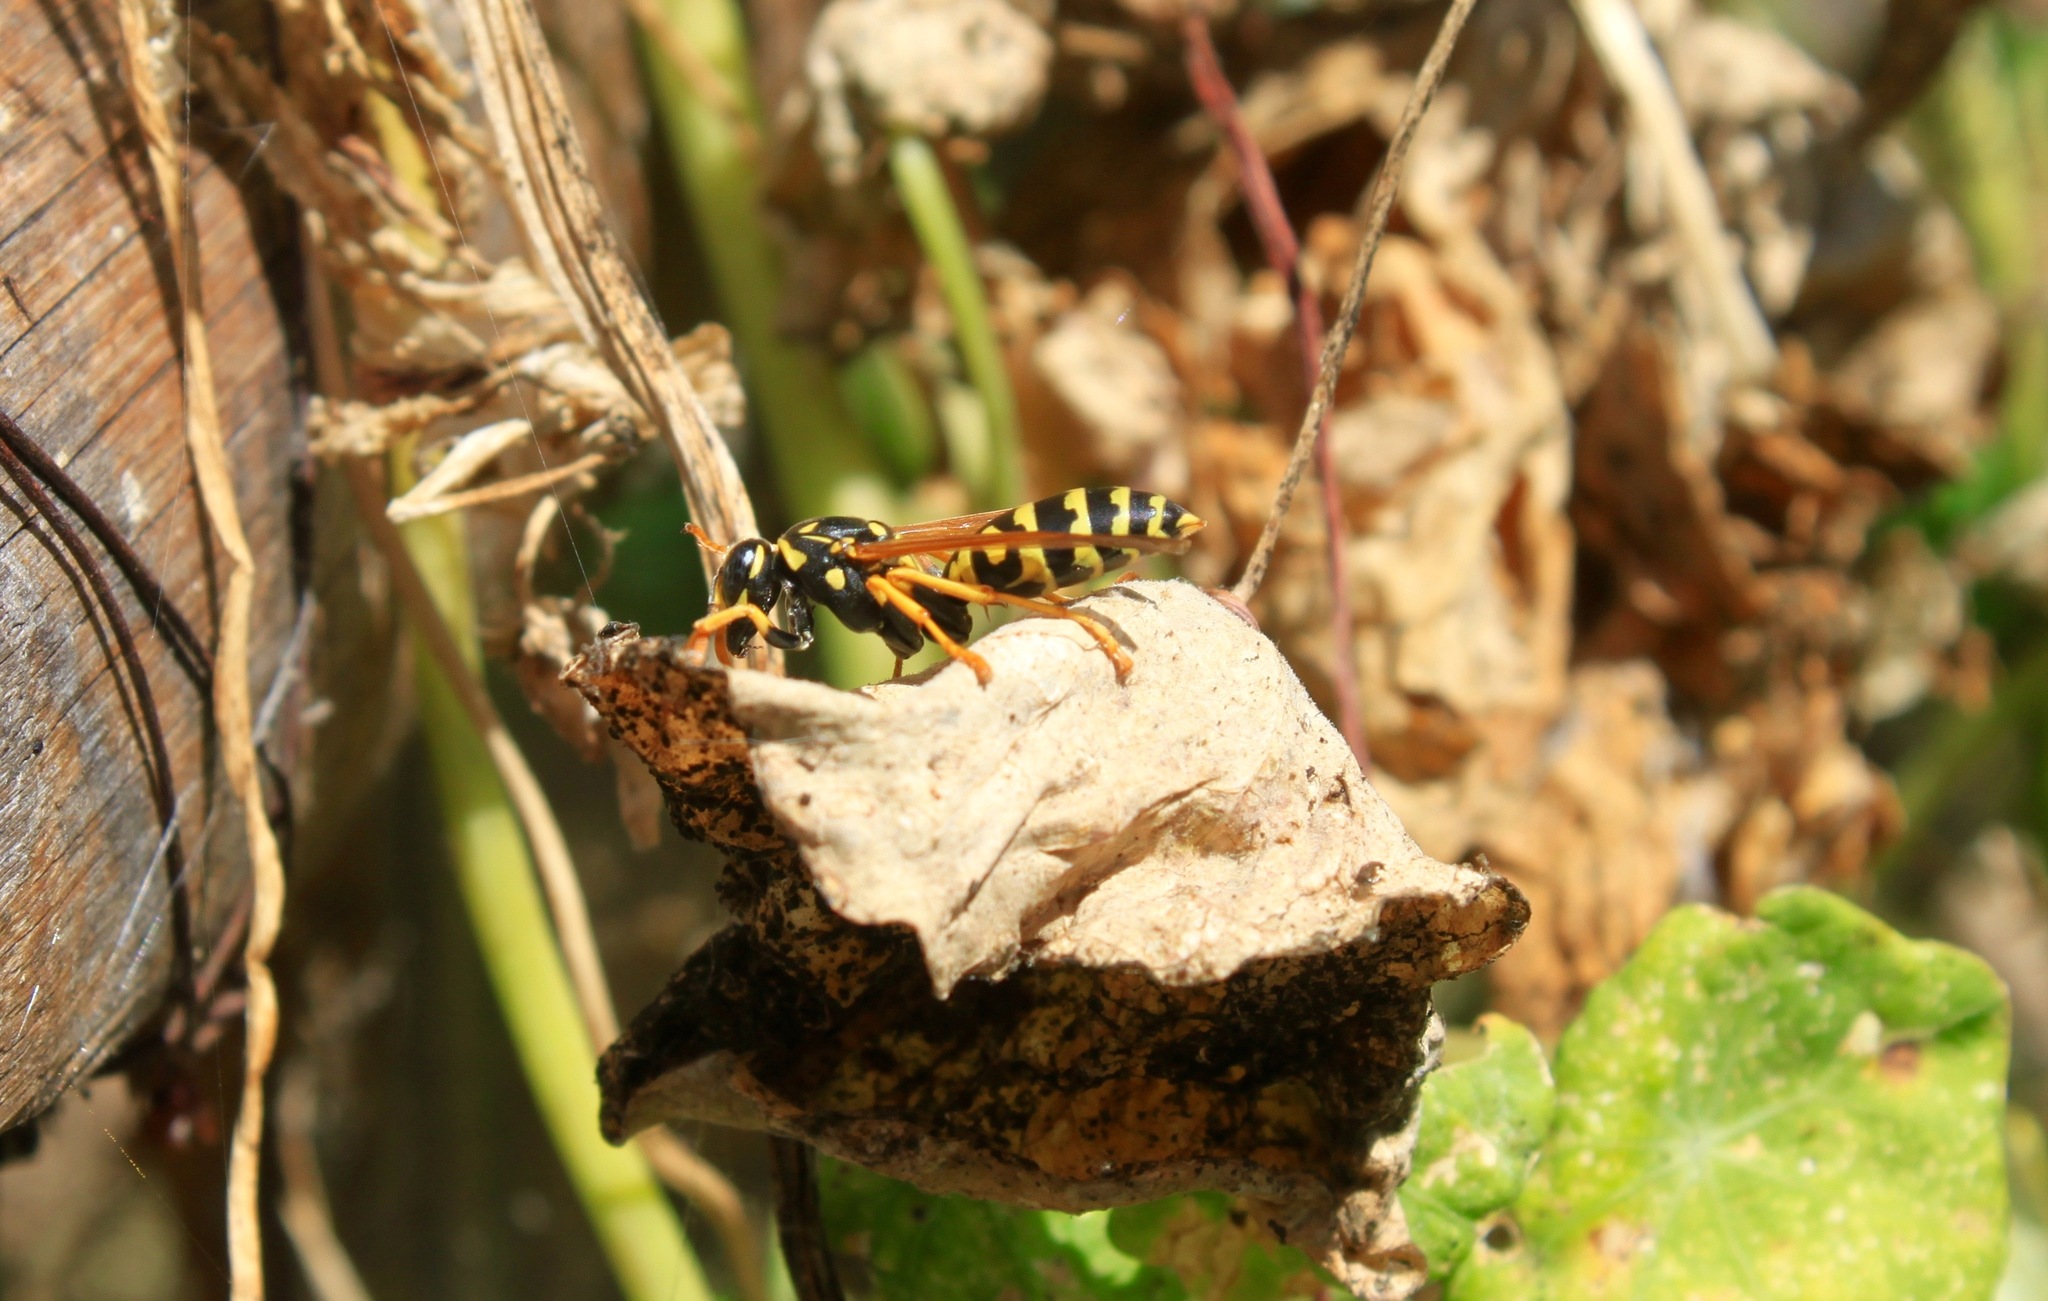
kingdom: Animalia
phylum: Arthropoda
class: Insecta
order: Hymenoptera
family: Eumenidae
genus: Polistes
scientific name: Polistes dominula
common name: Paper wasp
